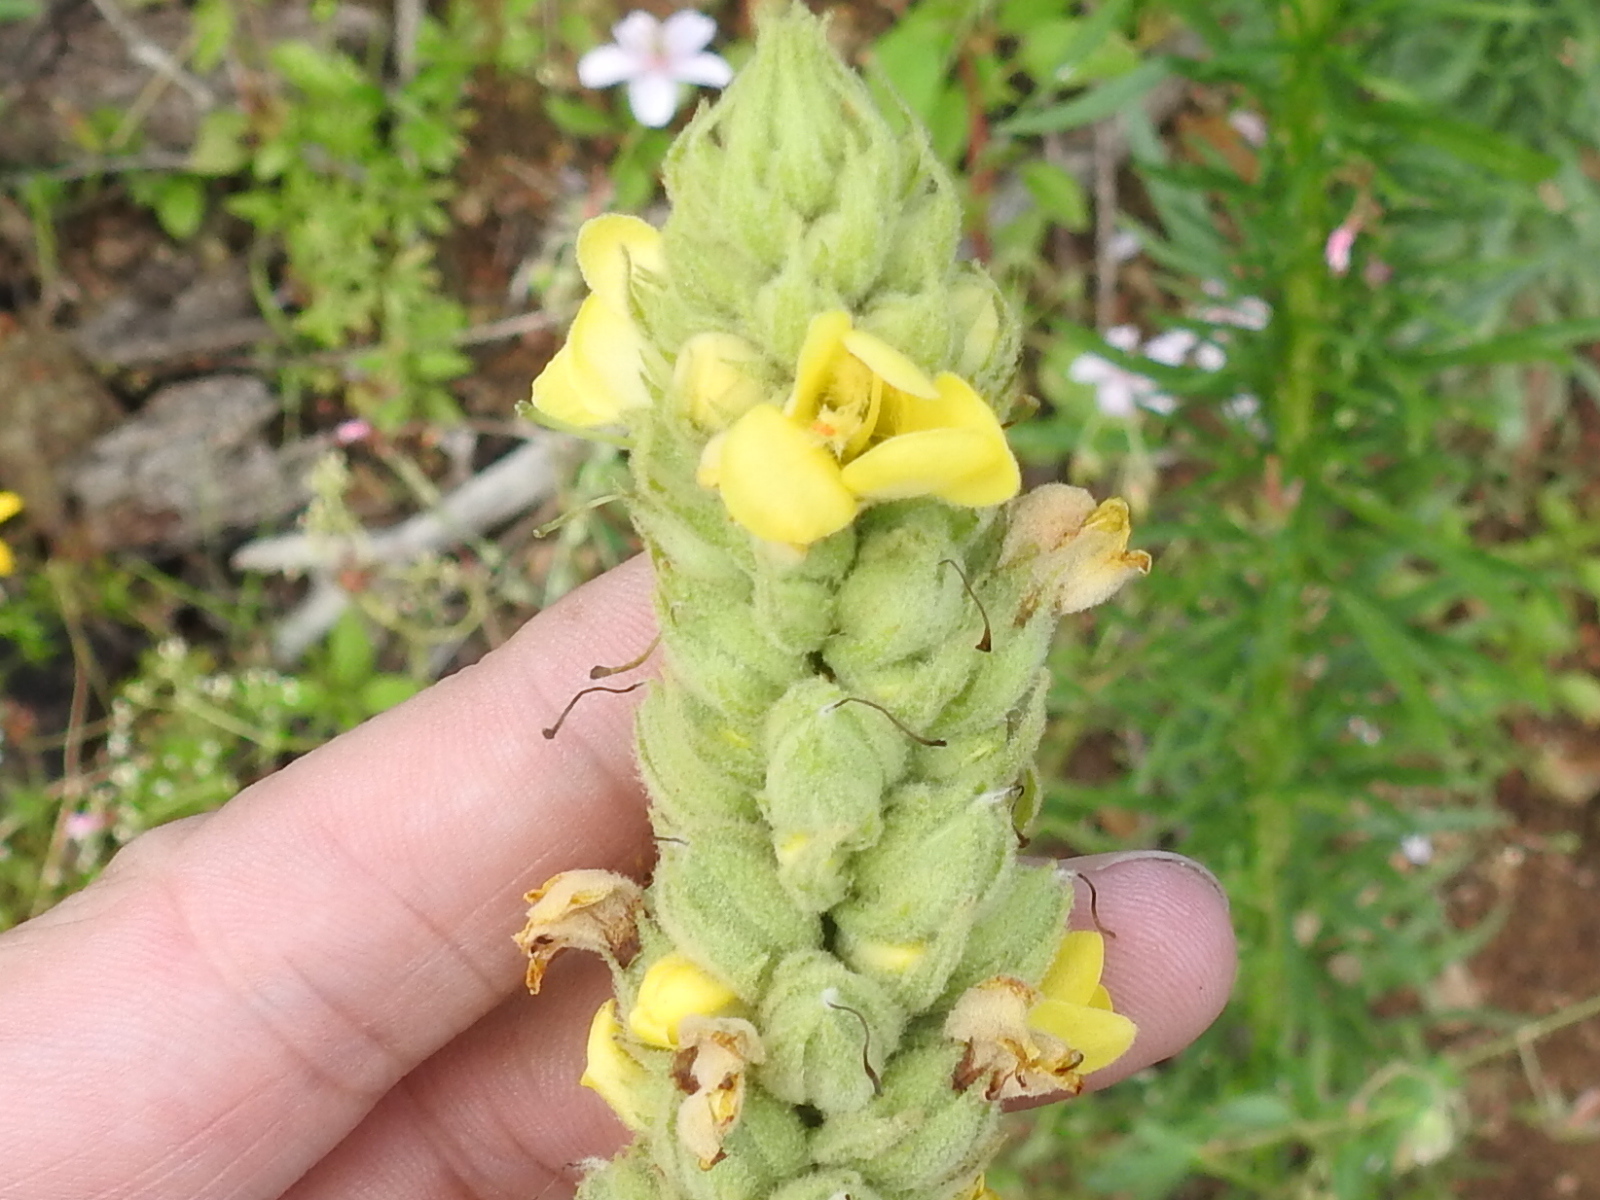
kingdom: Plantae
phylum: Tracheophyta
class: Magnoliopsida
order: Lamiales
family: Scrophulariaceae
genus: Verbascum
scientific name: Verbascum thapsus
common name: Common mullein
